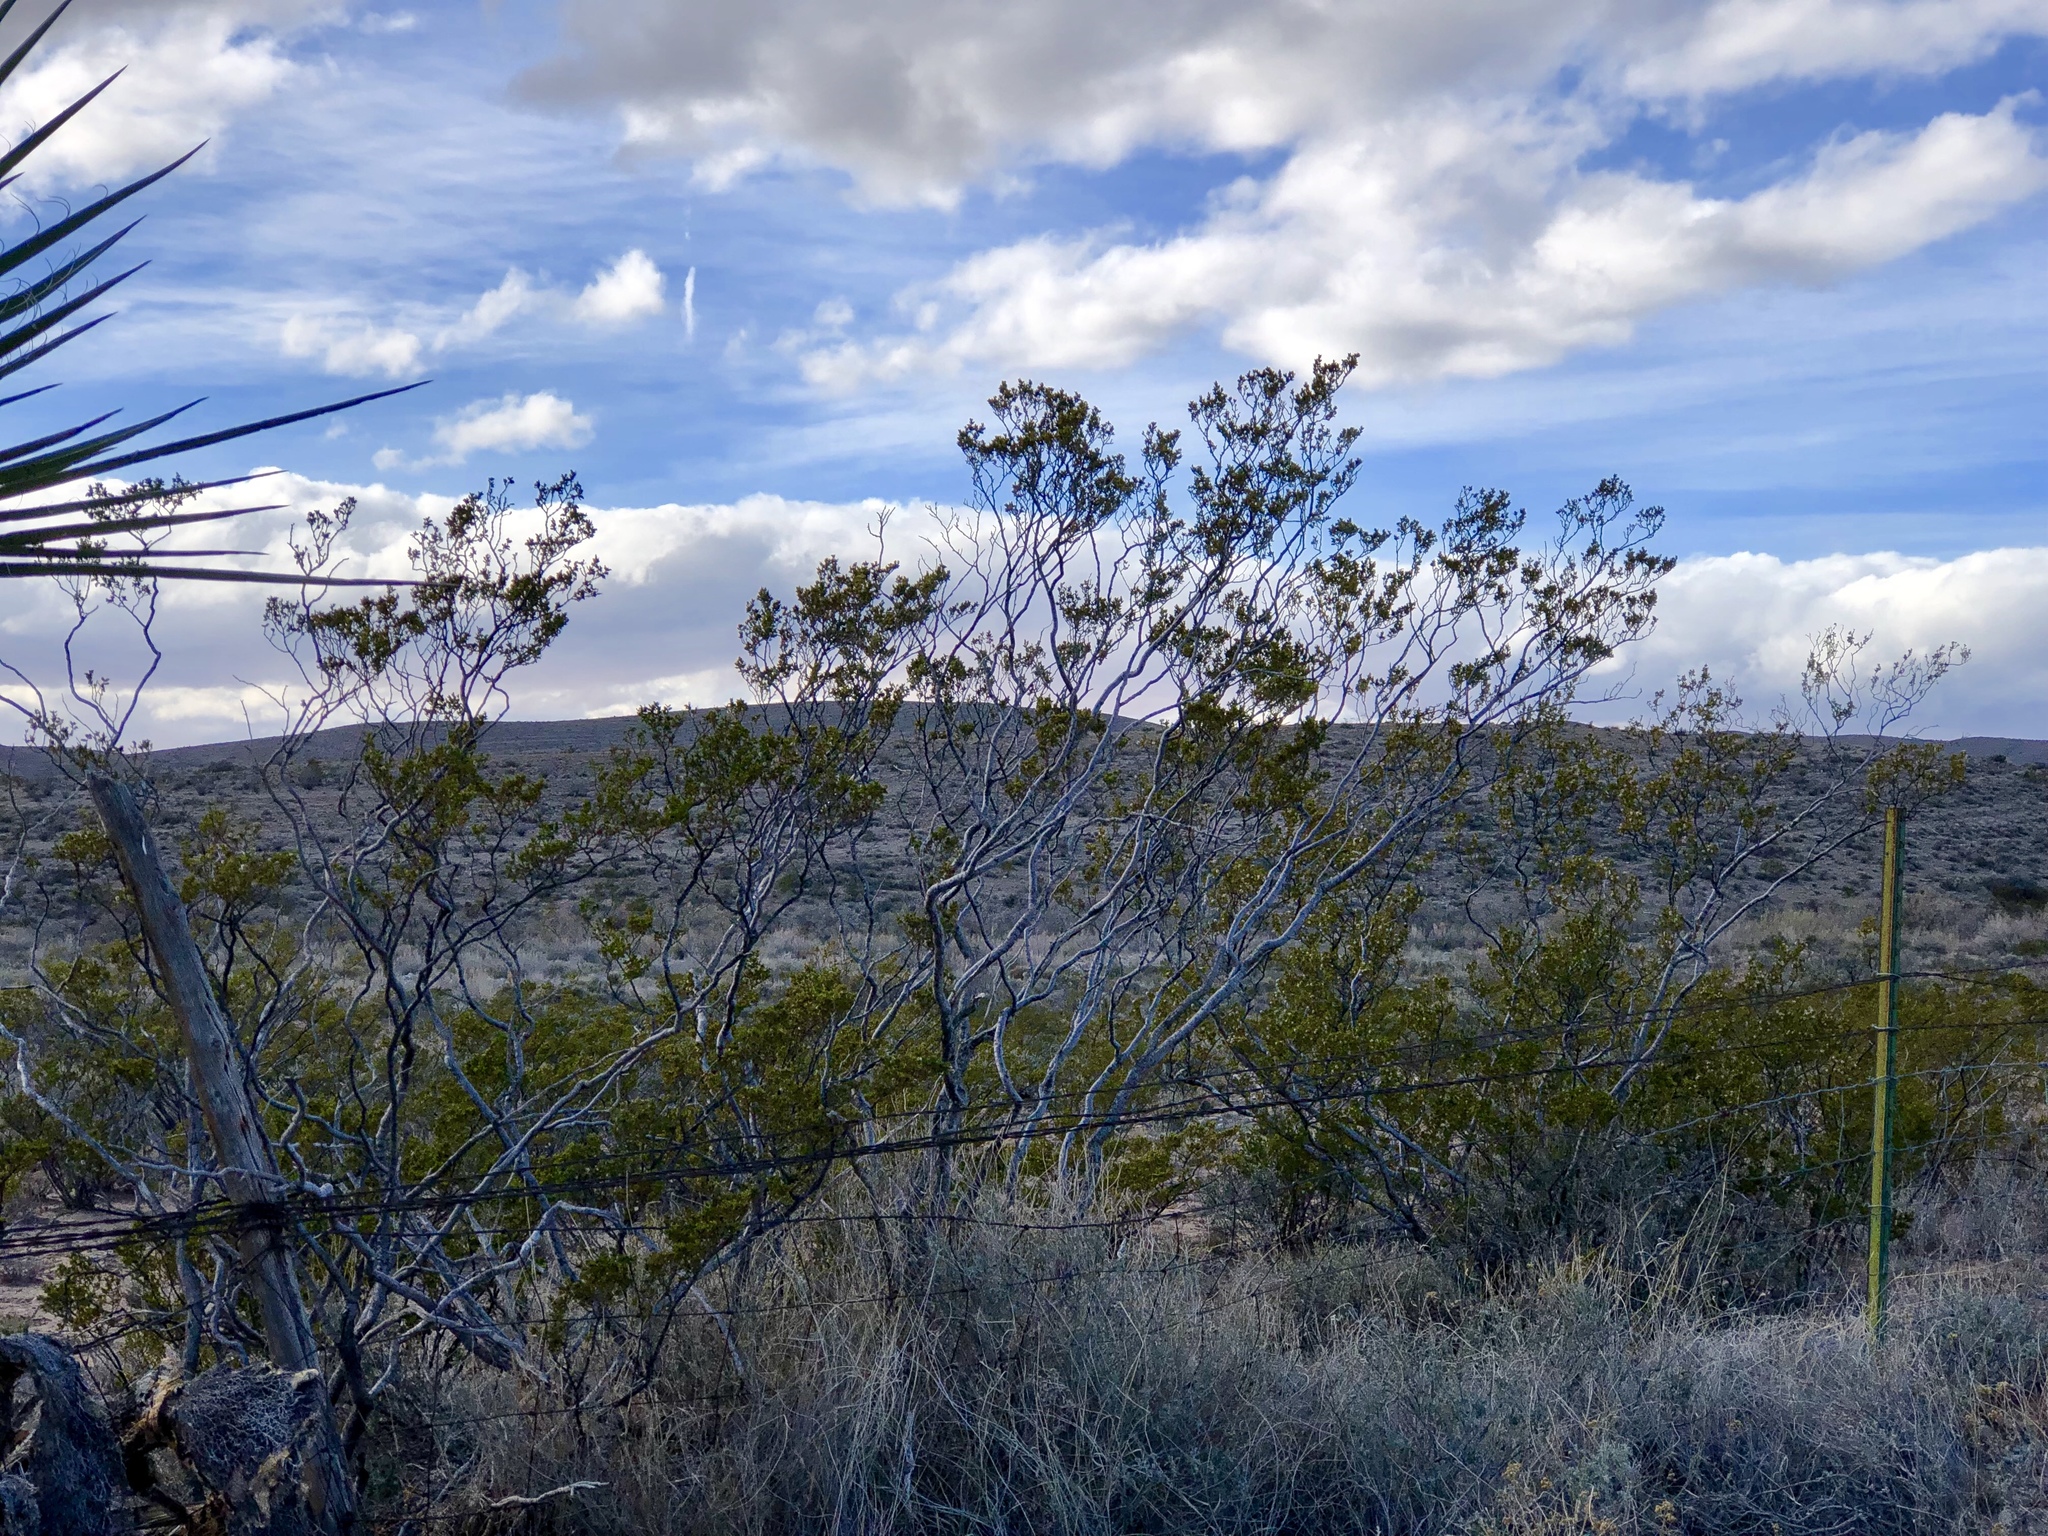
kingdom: Plantae
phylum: Tracheophyta
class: Magnoliopsida
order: Zygophyllales
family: Zygophyllaceae
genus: Larrea
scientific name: Larrea tridentata
